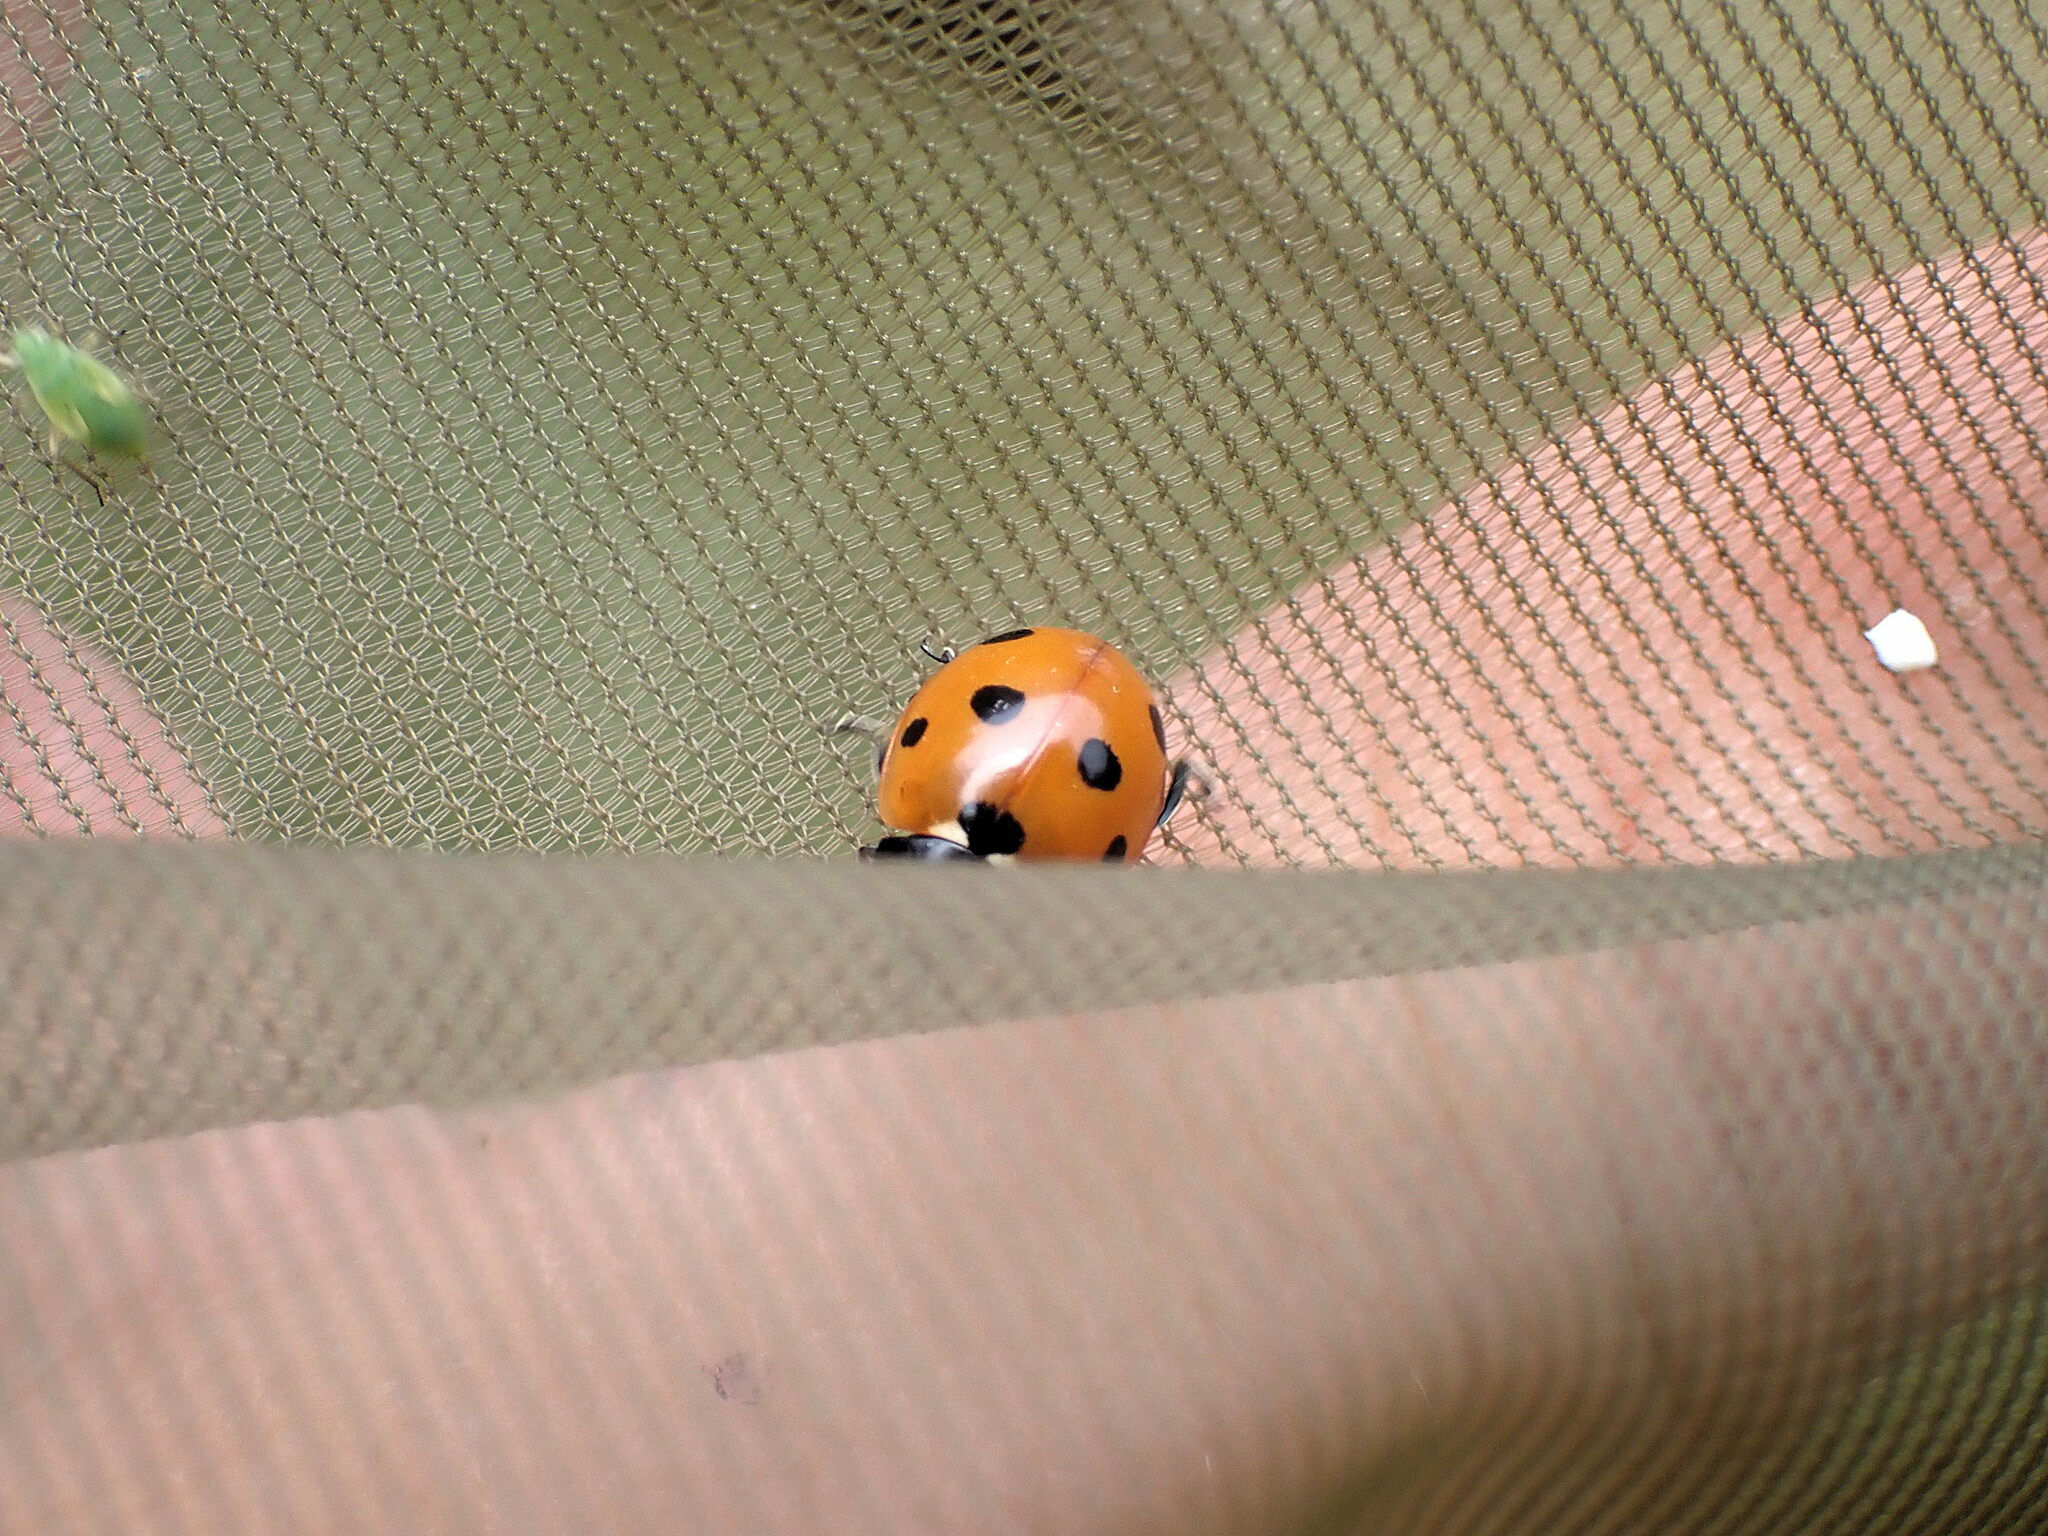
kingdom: Animalia
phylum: Arthropoda
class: Insecta
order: Coleoptera
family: Coccinellidae
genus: Coccinella
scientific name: Coccinella septempunctata
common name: Sevenspotted lady beetle
